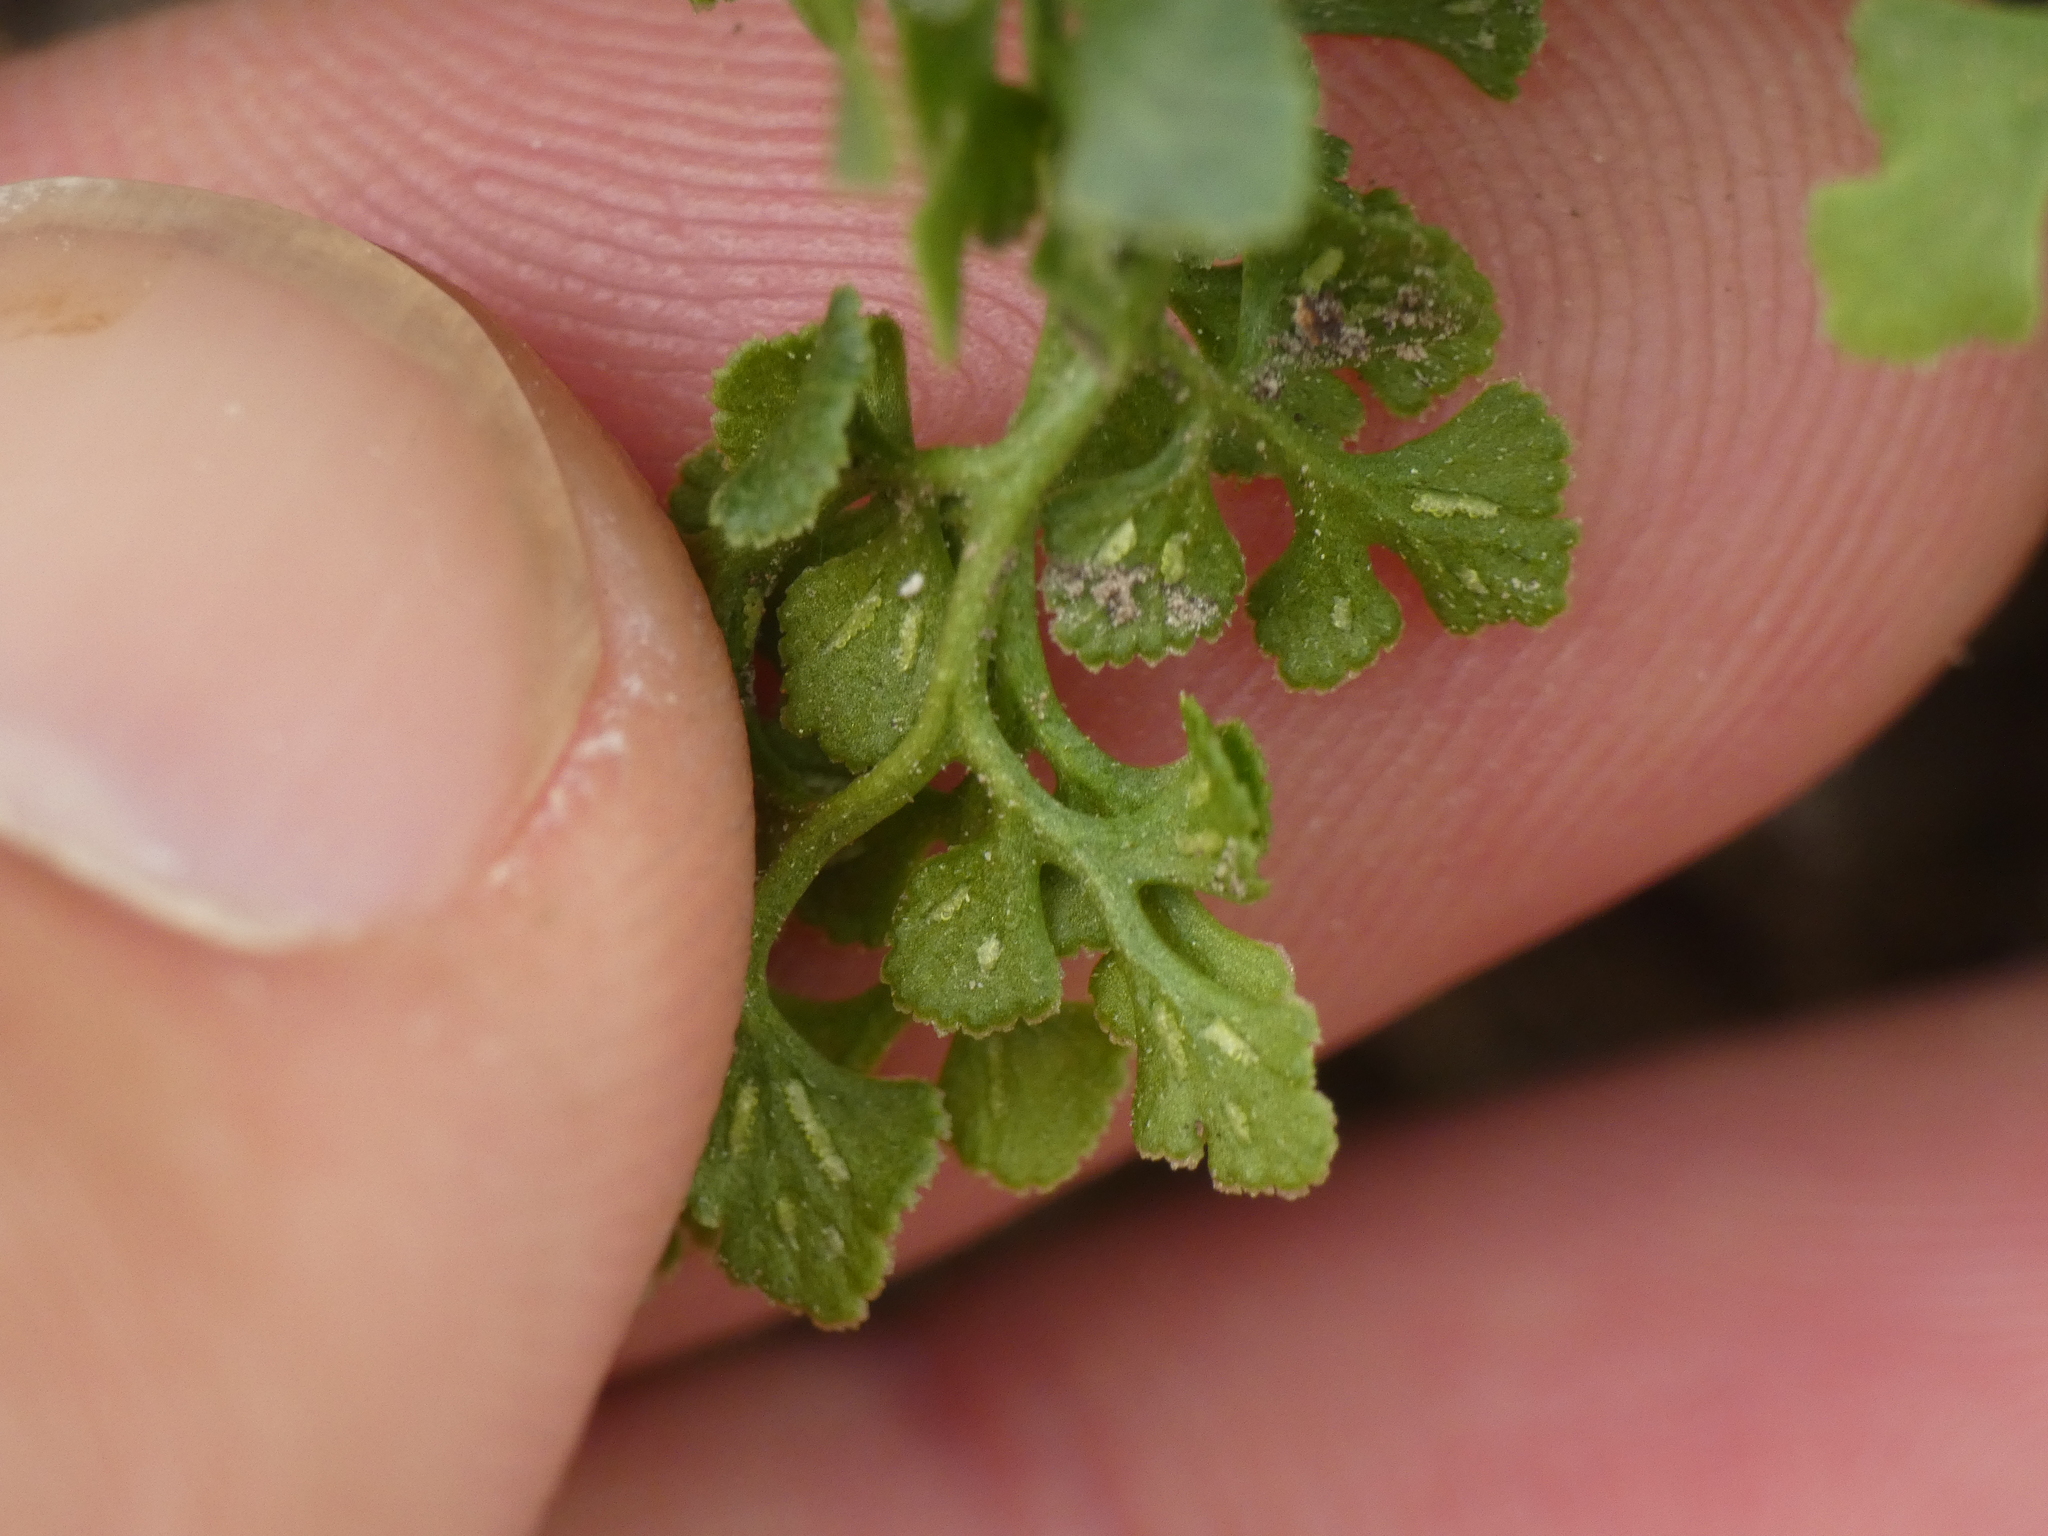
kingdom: Plantae
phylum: Tracheophyta
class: Polypodiopsida
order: Polypodiales
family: Aspleniaceae
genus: Asplenium
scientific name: Asplenium ruta-muraria
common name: Wall-rue
